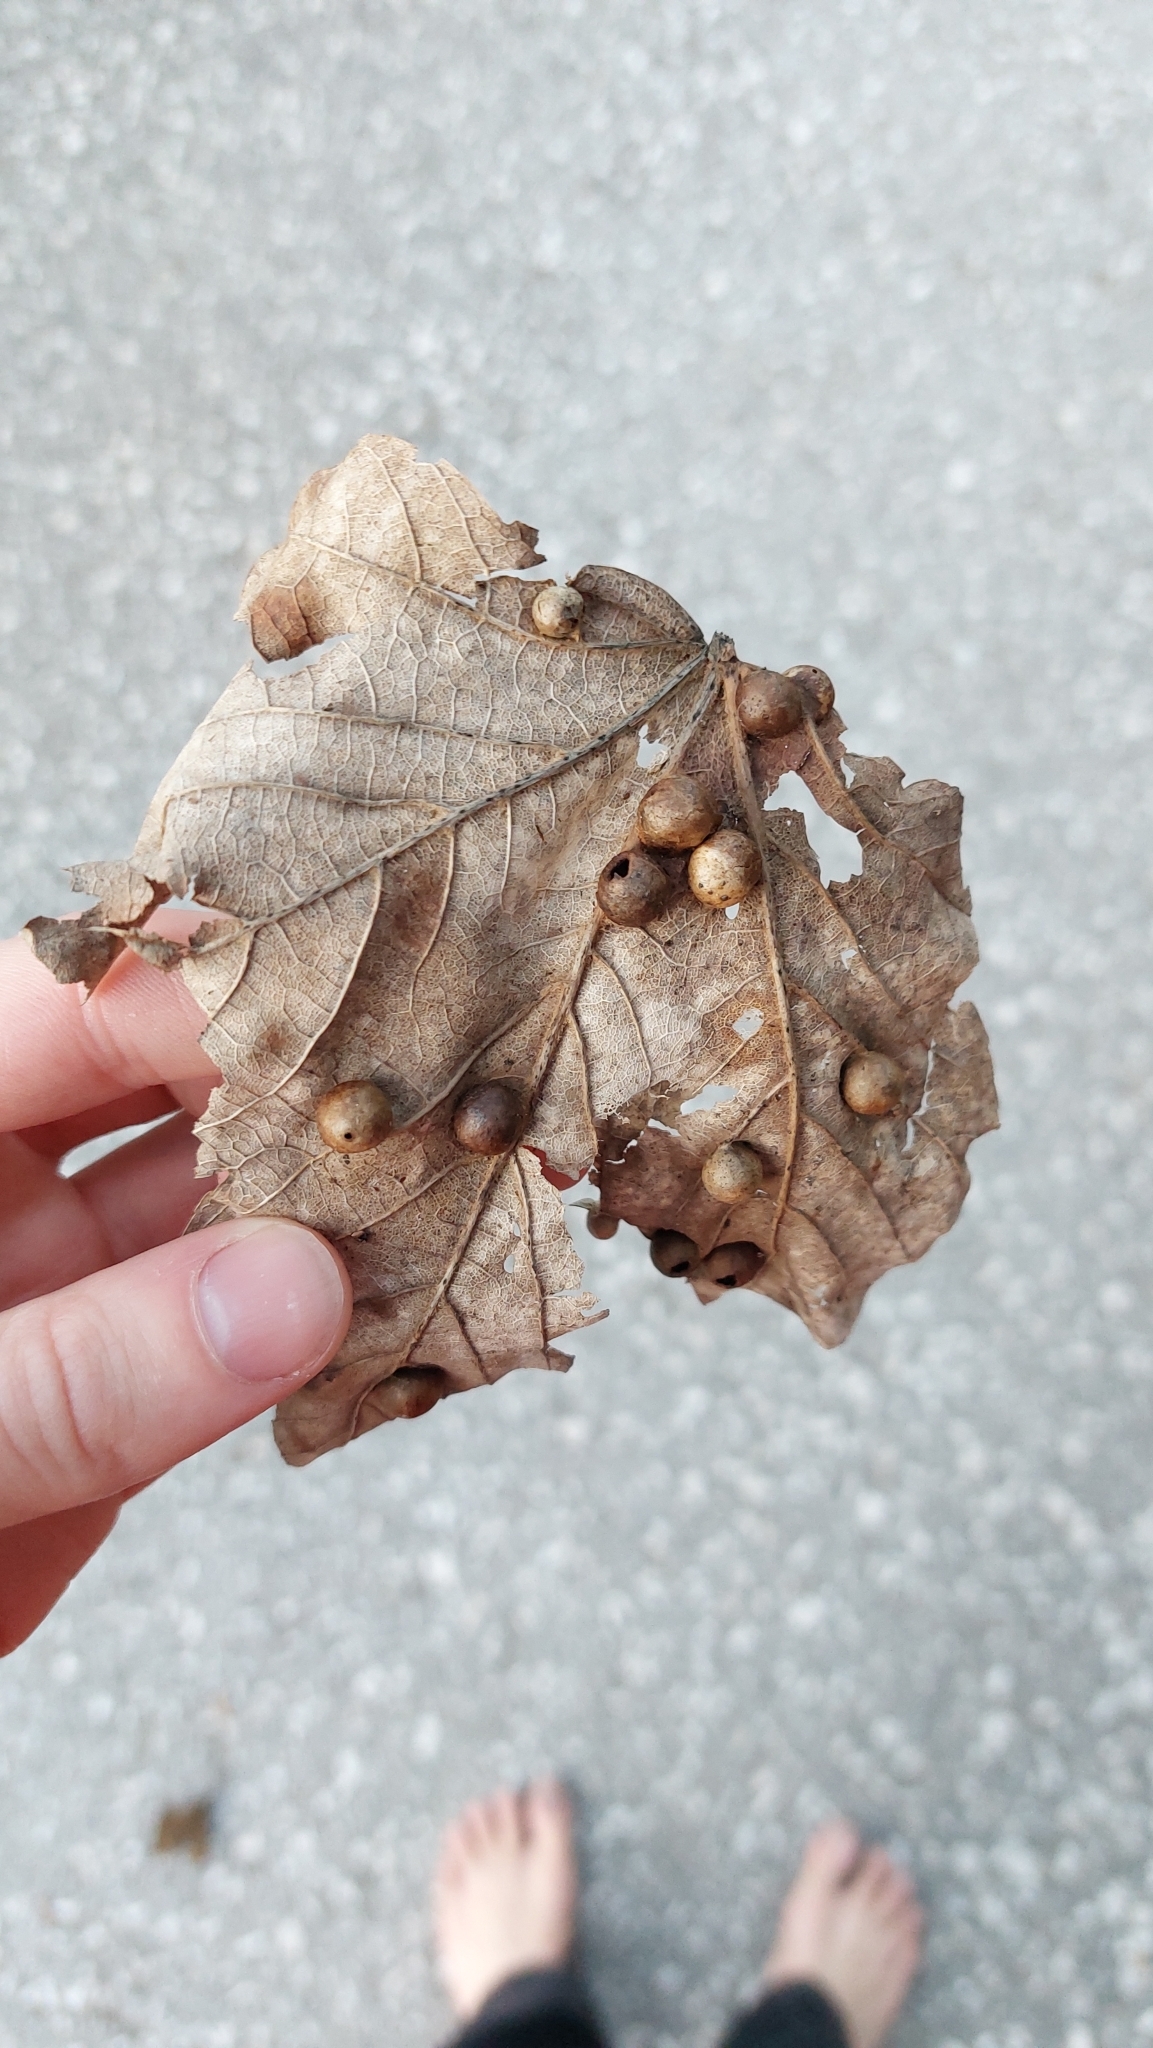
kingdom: Animalia
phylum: Arthropoda
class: Insecta
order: Hymenoptera
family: Cynipidae
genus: Pediaspis
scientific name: Pediaspis aceris
